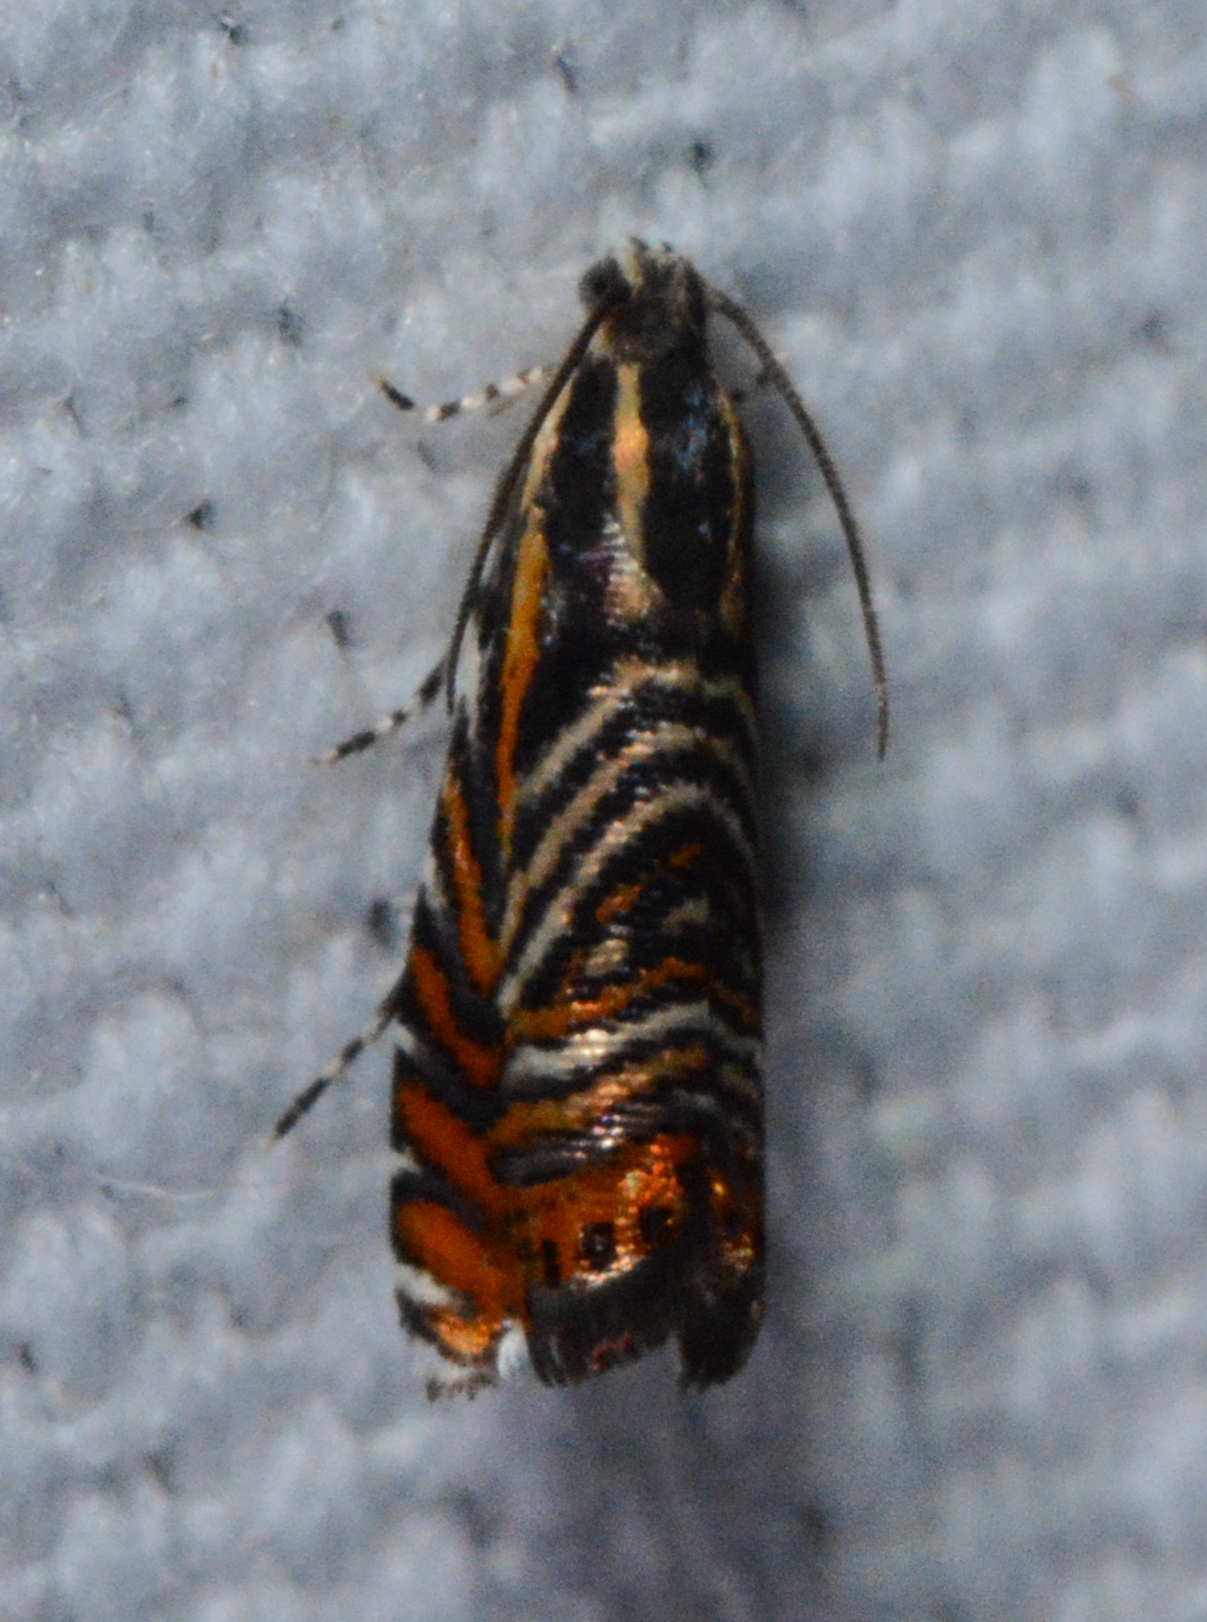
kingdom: Animalia
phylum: Arthropoda
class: Insecta
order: Lepidoptera
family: Tortricidae
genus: Thaumatographa
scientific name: Thaumatographa jonesi
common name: Psychedelic jones moth
